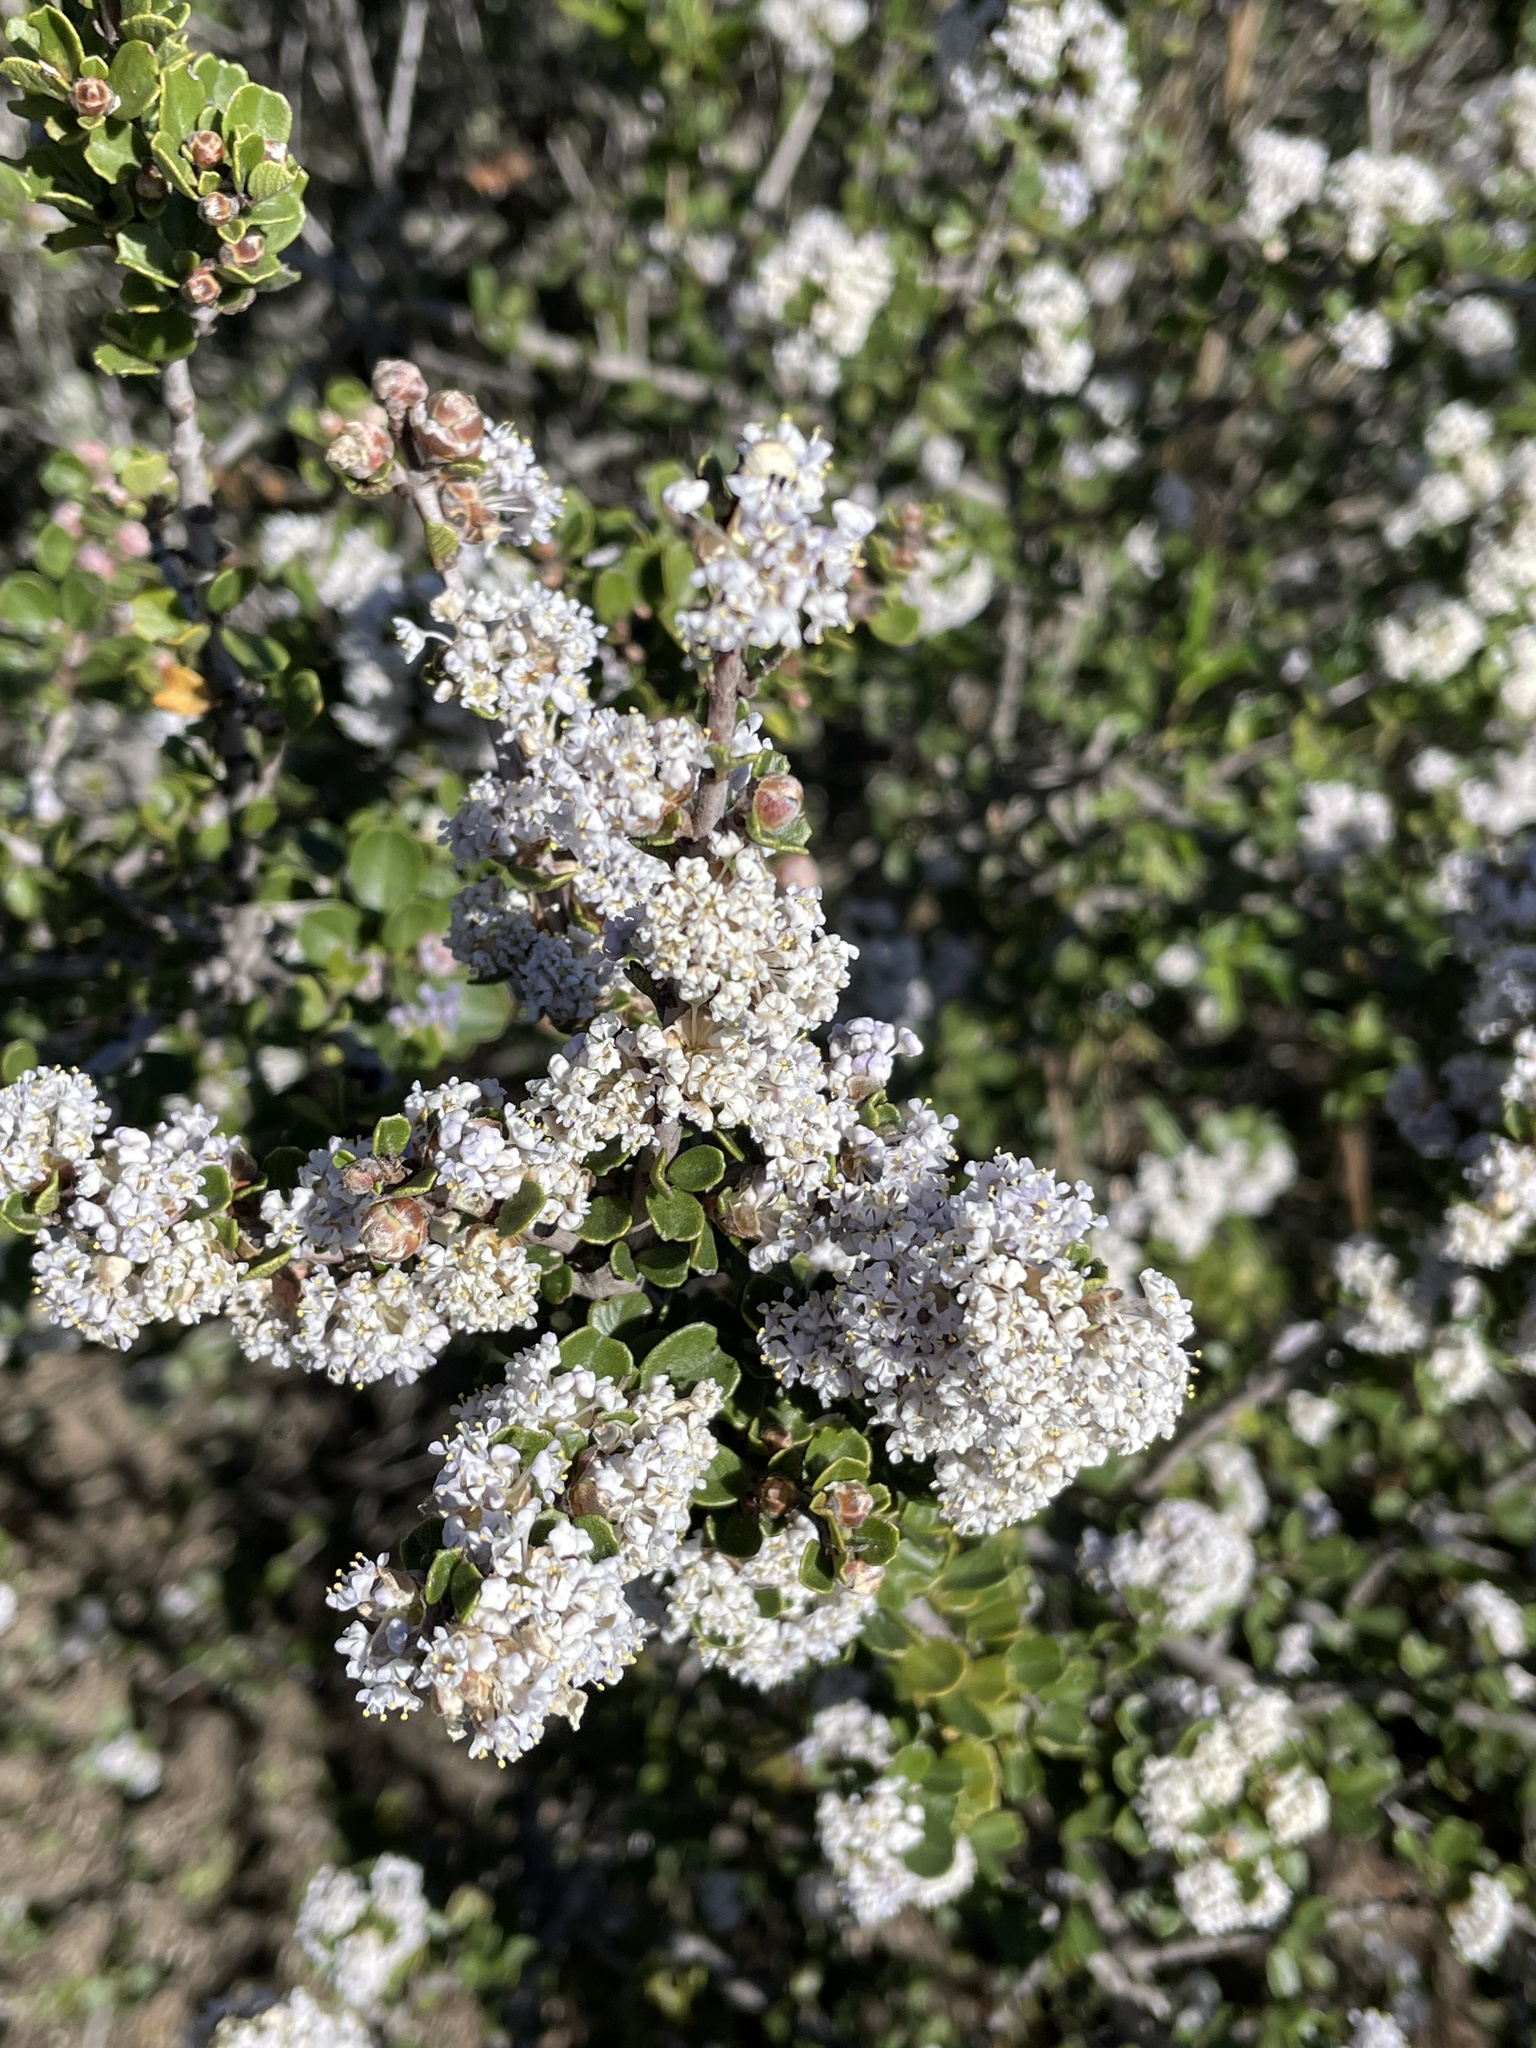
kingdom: Plantae
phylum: Tracheophyta
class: Magnoliopsida
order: Rosales
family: Rhamnaceae
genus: Ceanothus
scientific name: Ceanothus cuneatus
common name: Cuneate ceanothus
